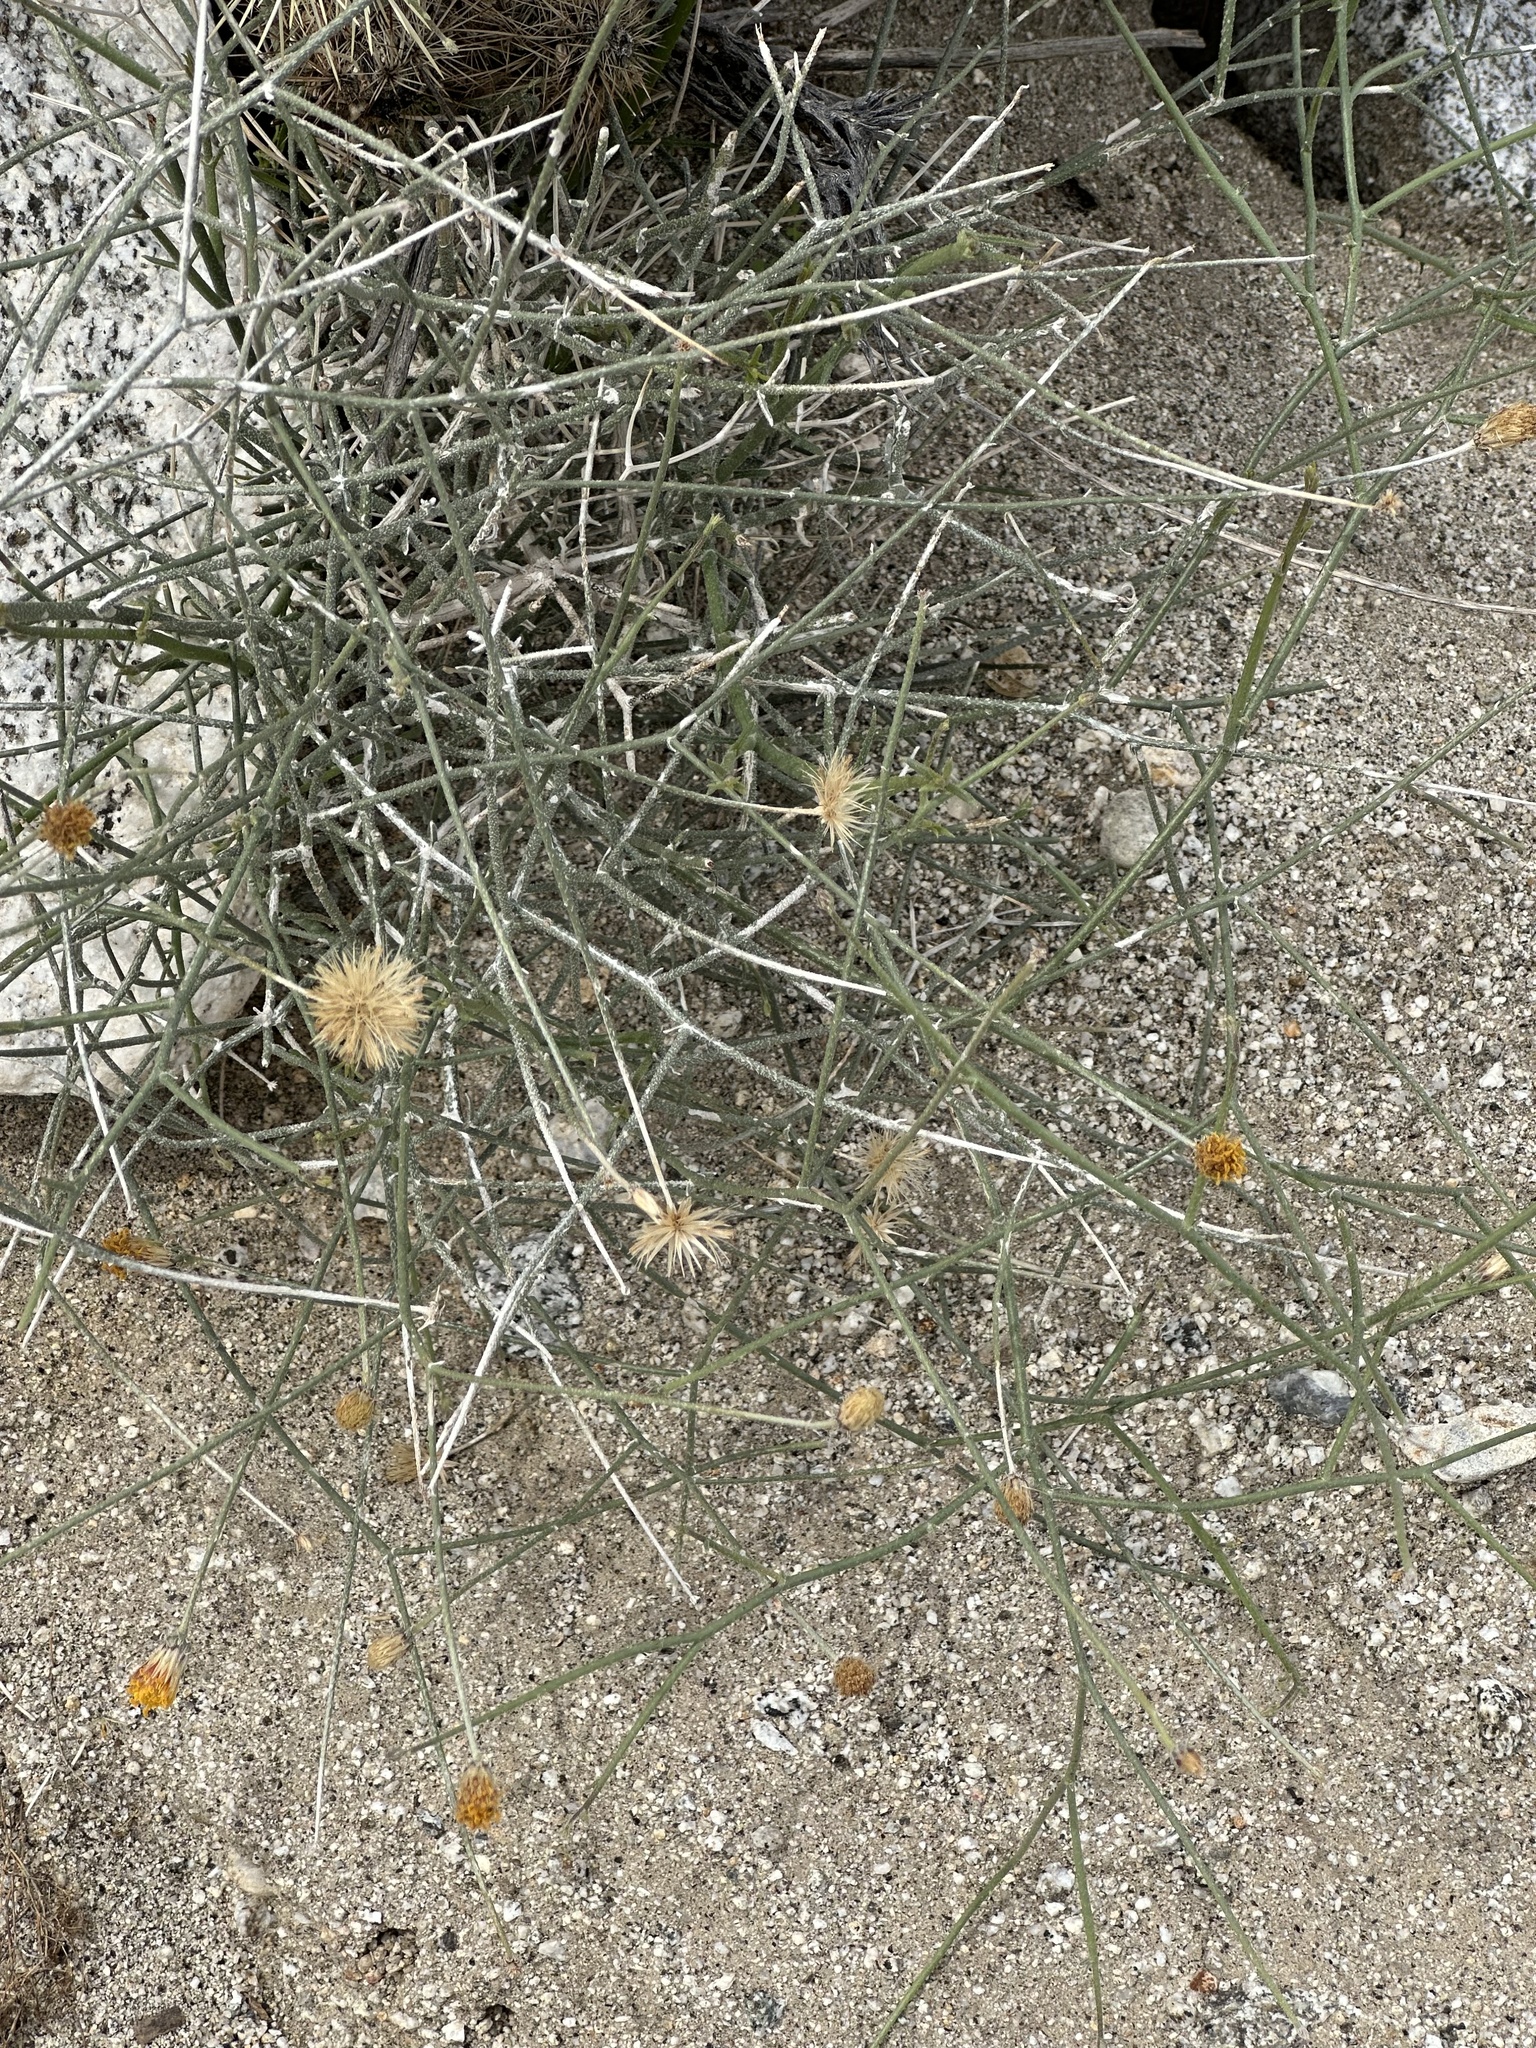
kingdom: Plantae
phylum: Tracheophyta
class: Magnoliopsida
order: Asterales
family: Asteraceae
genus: Bebbia
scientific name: Bebbia juncea
